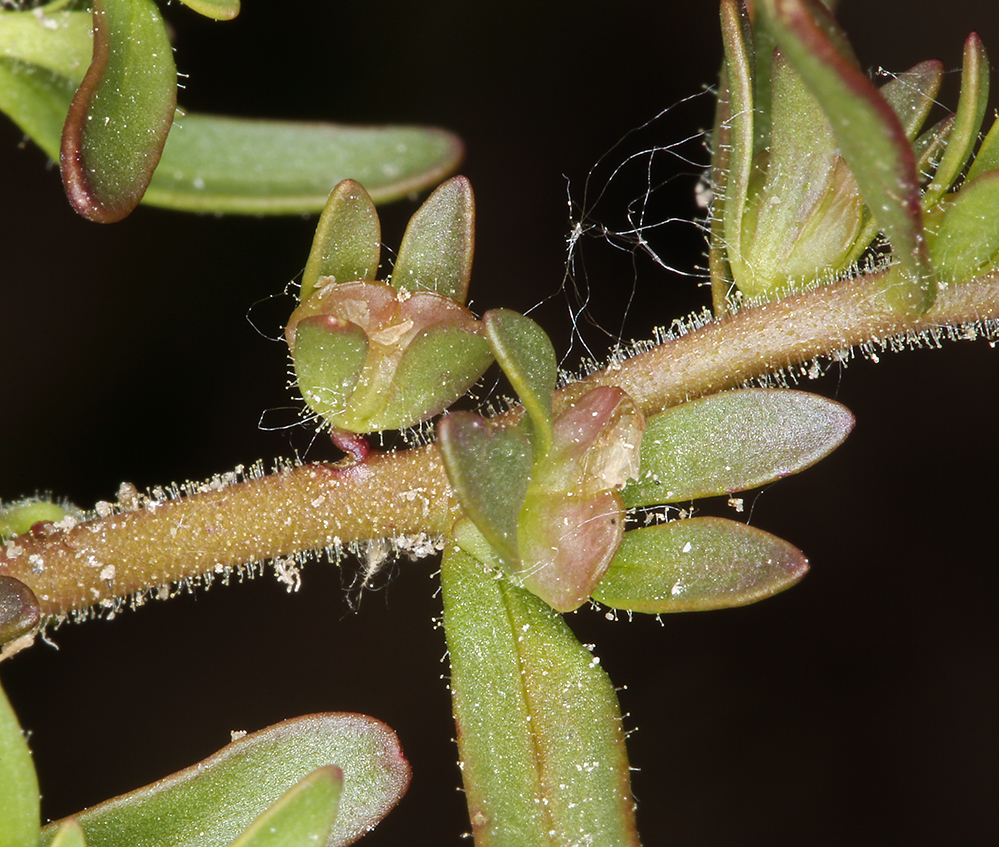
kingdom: Plantae
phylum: Tracheophyta
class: Magnoliopsida
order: Lamiales
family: Plantaginaceae
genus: Veronica
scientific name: Veronica peregrina
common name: Neckweed
